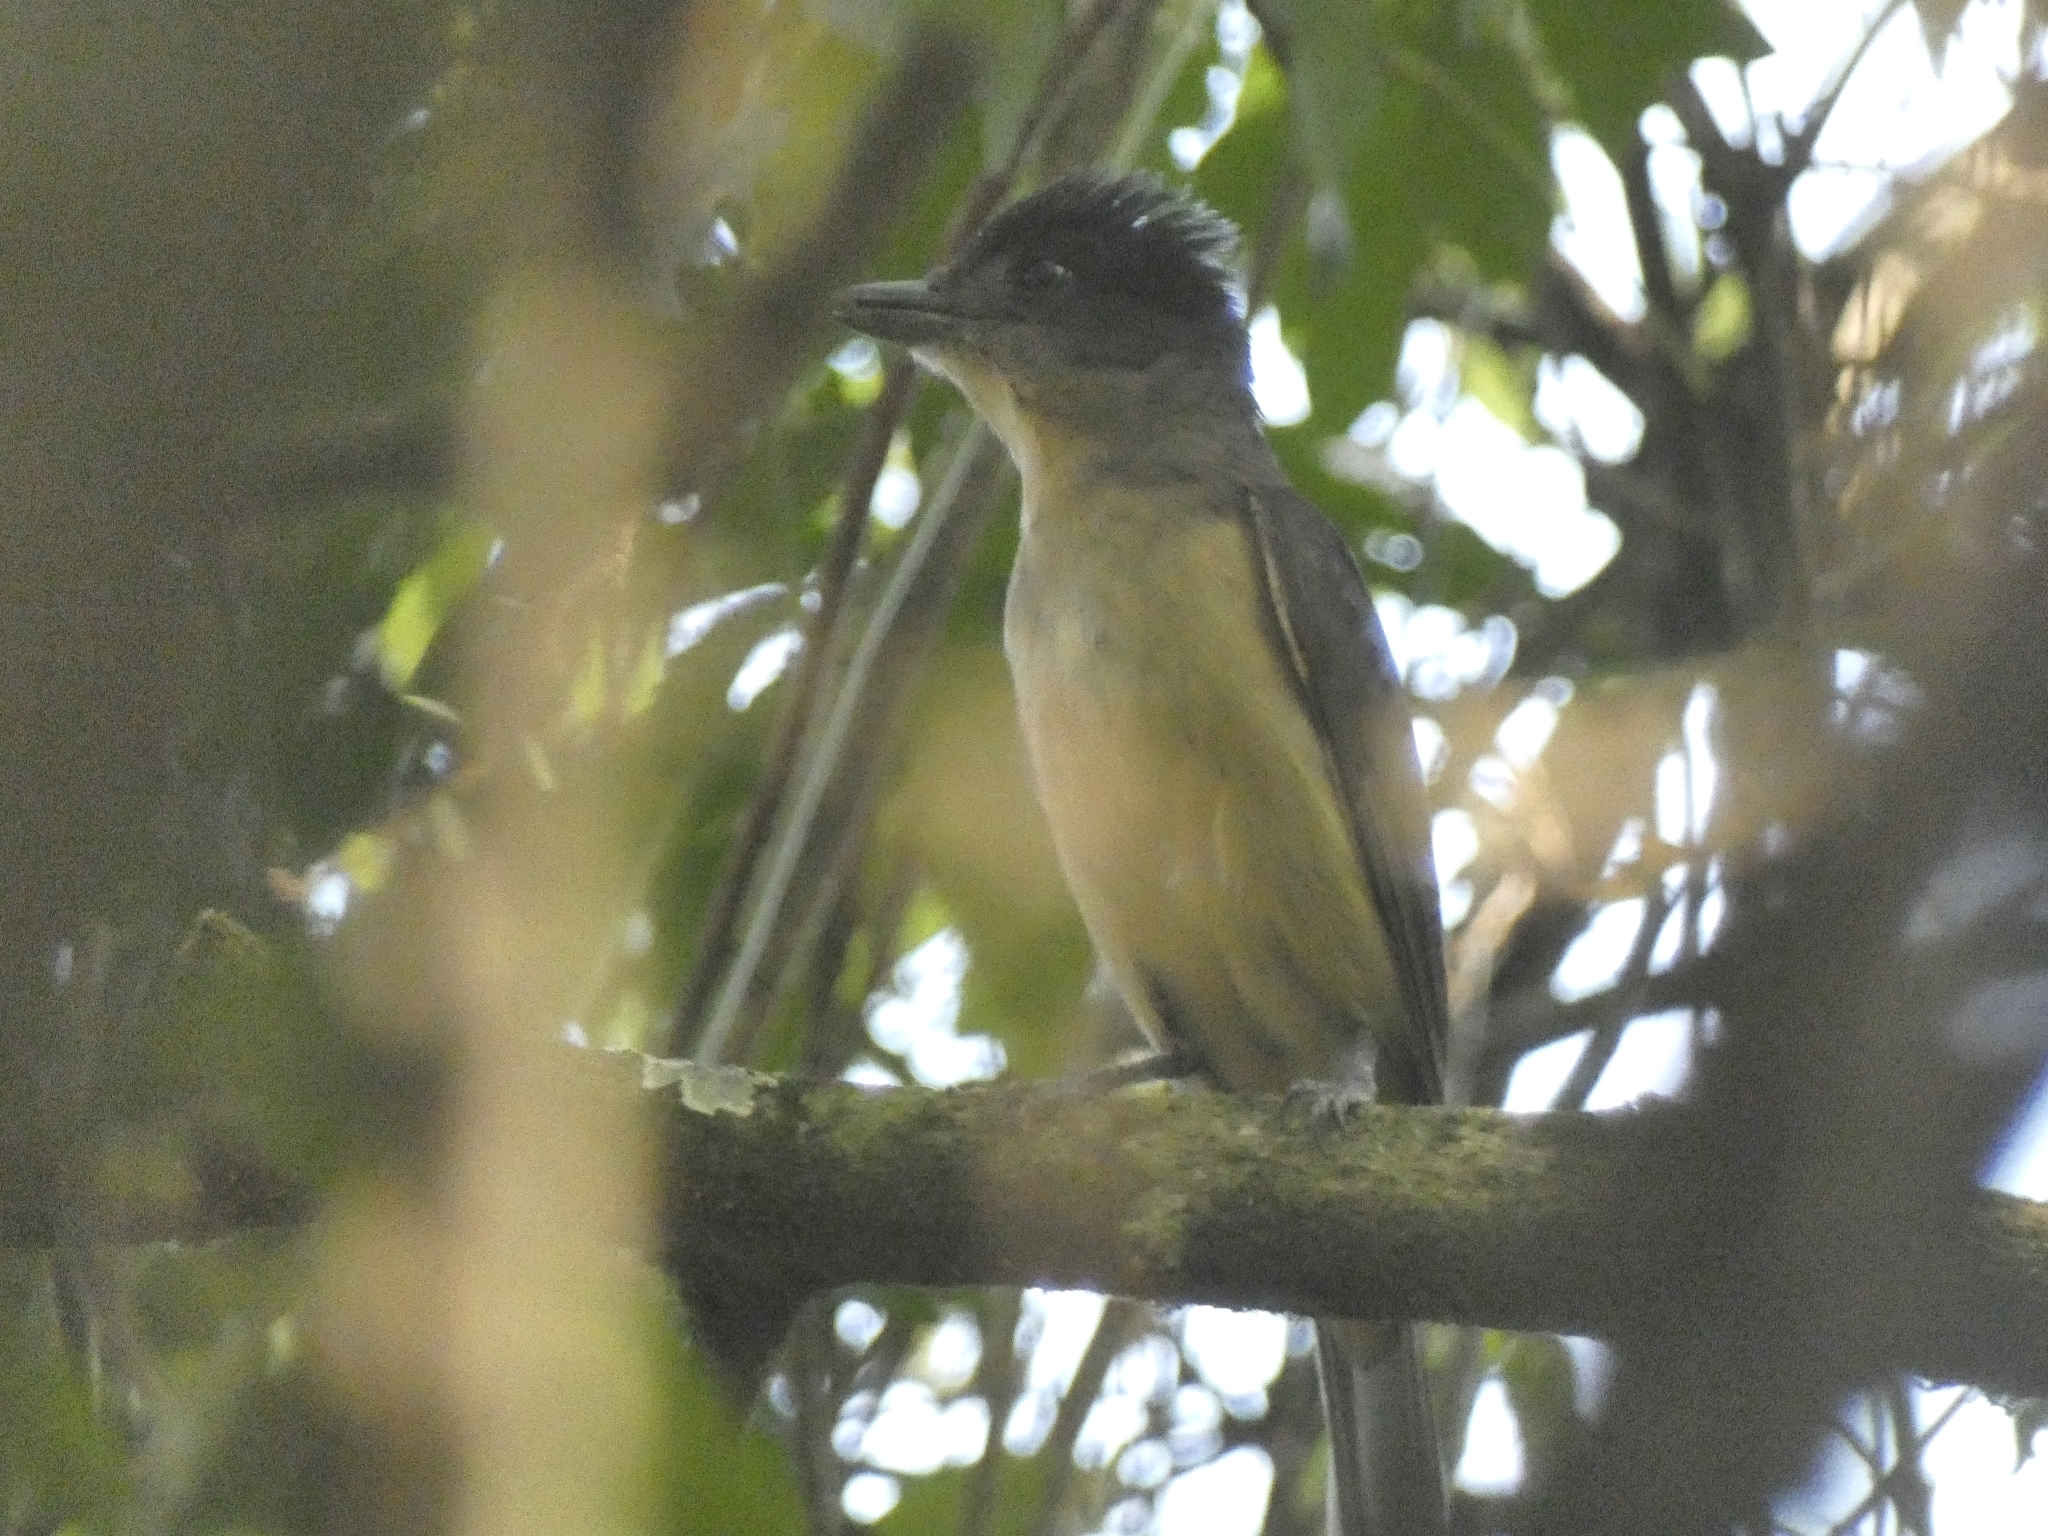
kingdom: Animalia
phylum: Chordata
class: Aves
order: Passeriformes
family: Cotingidae
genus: Pachyramphus
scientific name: Pachyramphus validus
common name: Crested becard
